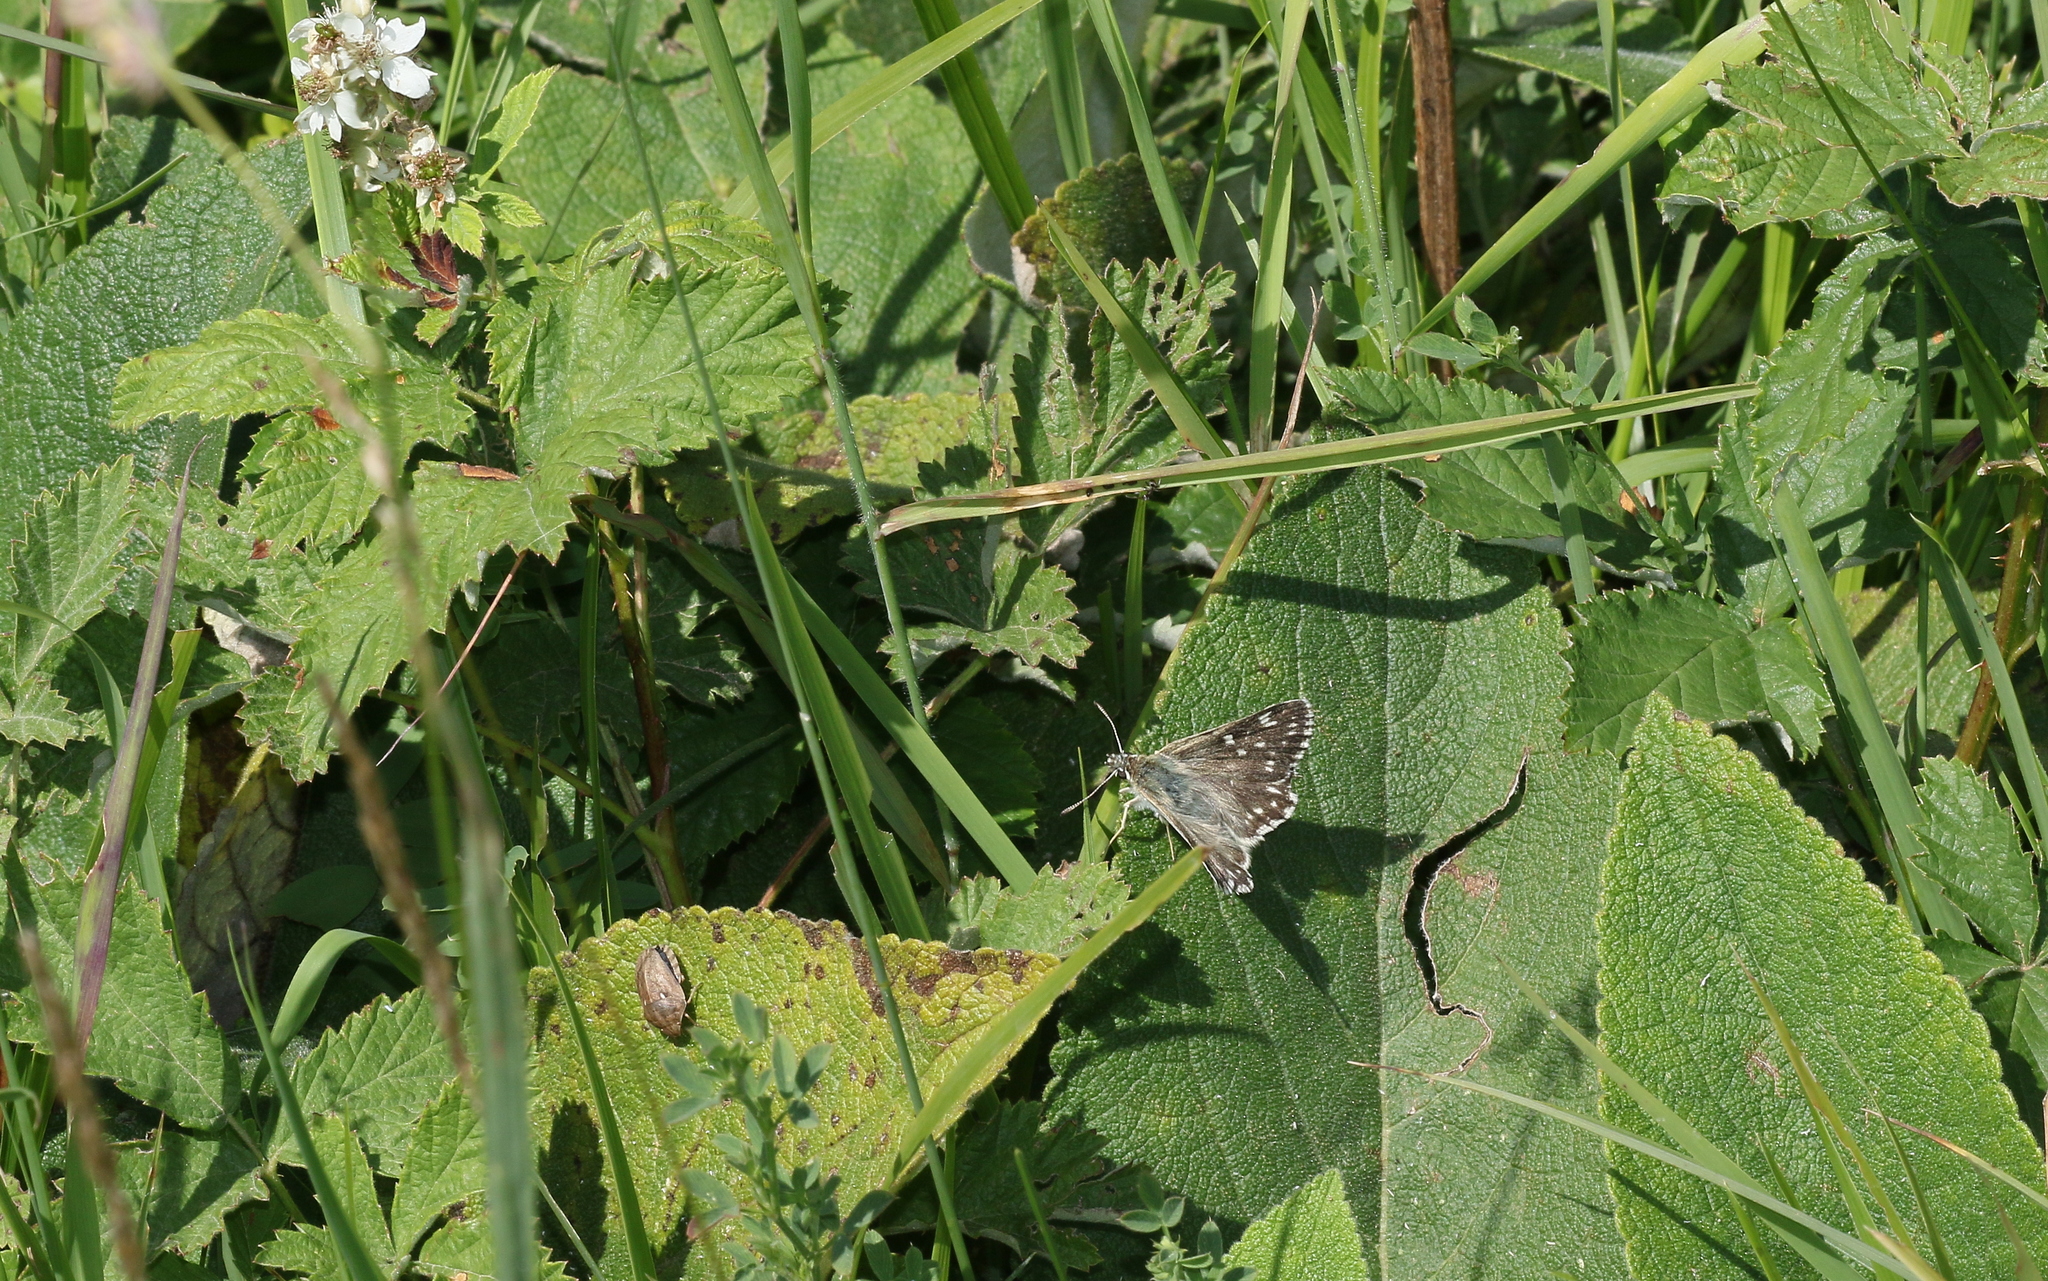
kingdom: Animalia
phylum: Arthropoda
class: Insecta
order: Lepidoptera
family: Hesperiidae
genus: Syrichtus
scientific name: Syrichtus tessellum
